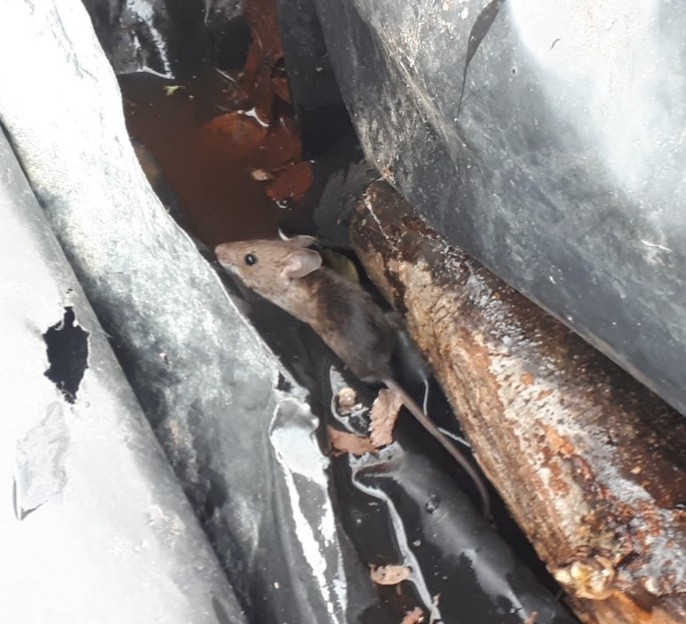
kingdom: Animalia
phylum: Chordata
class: Mammalia
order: Rodentia
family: Muridae
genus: Apodemus
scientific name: Apodemus sylvaticus
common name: Wood mouse
